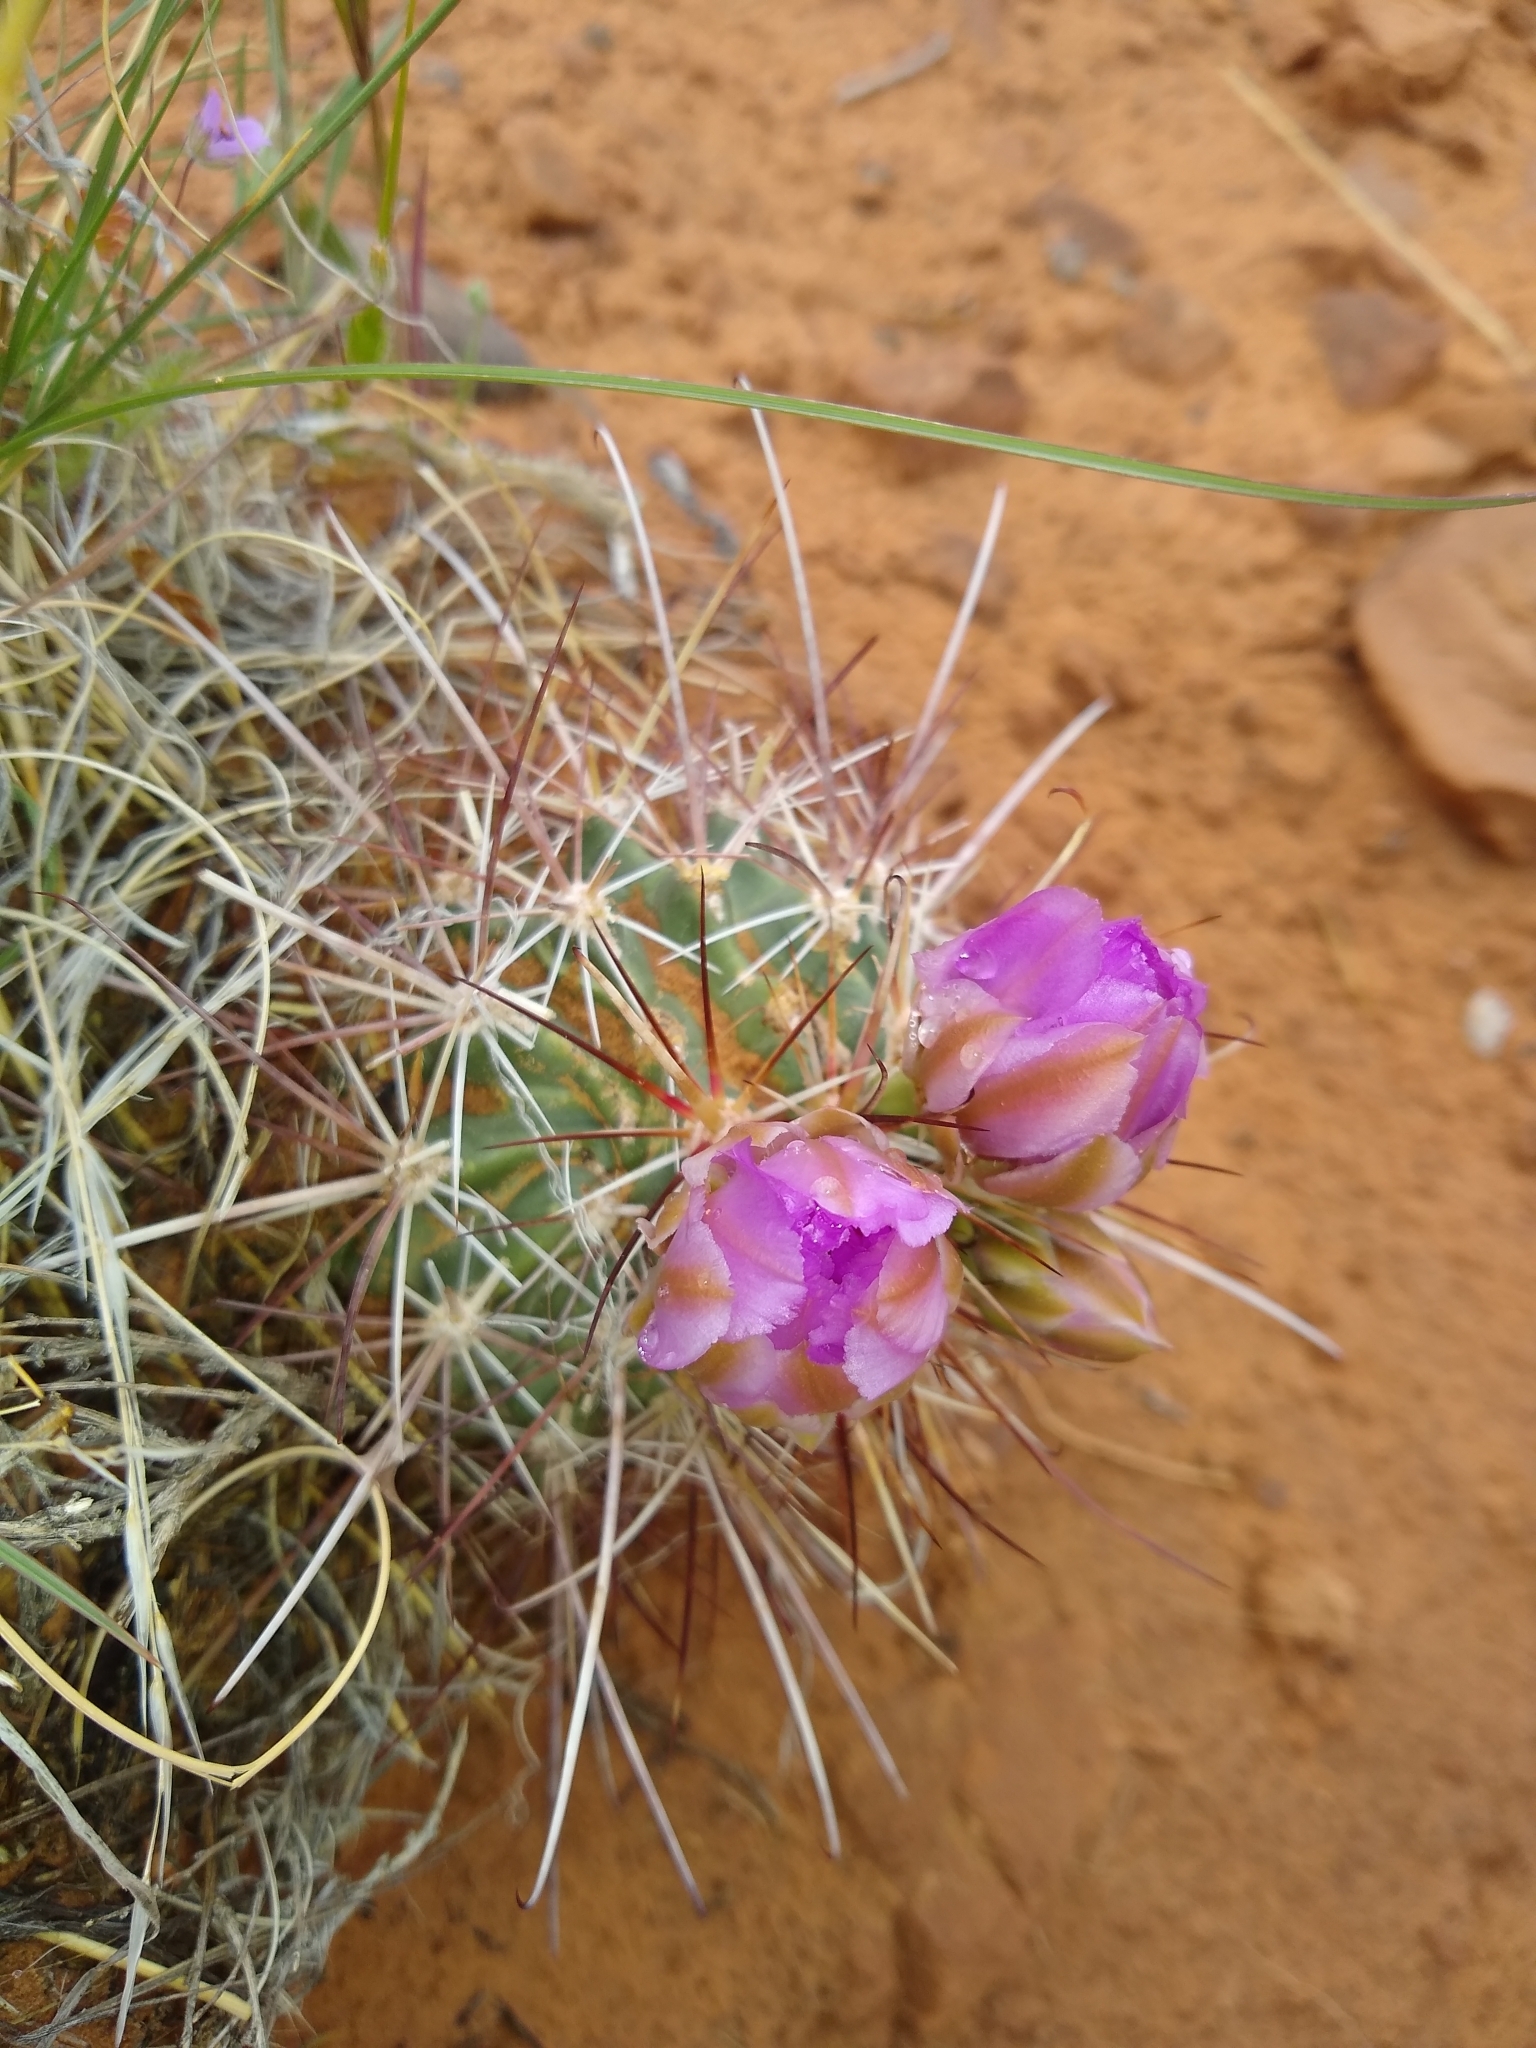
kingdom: Plantae
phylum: Tracheophyta
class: Magnoliopsida
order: Caryophyllales
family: Cactaceae
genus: Sclerocactus
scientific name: Sclerocactus parviflorus
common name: Small-flower fishhook cactus
